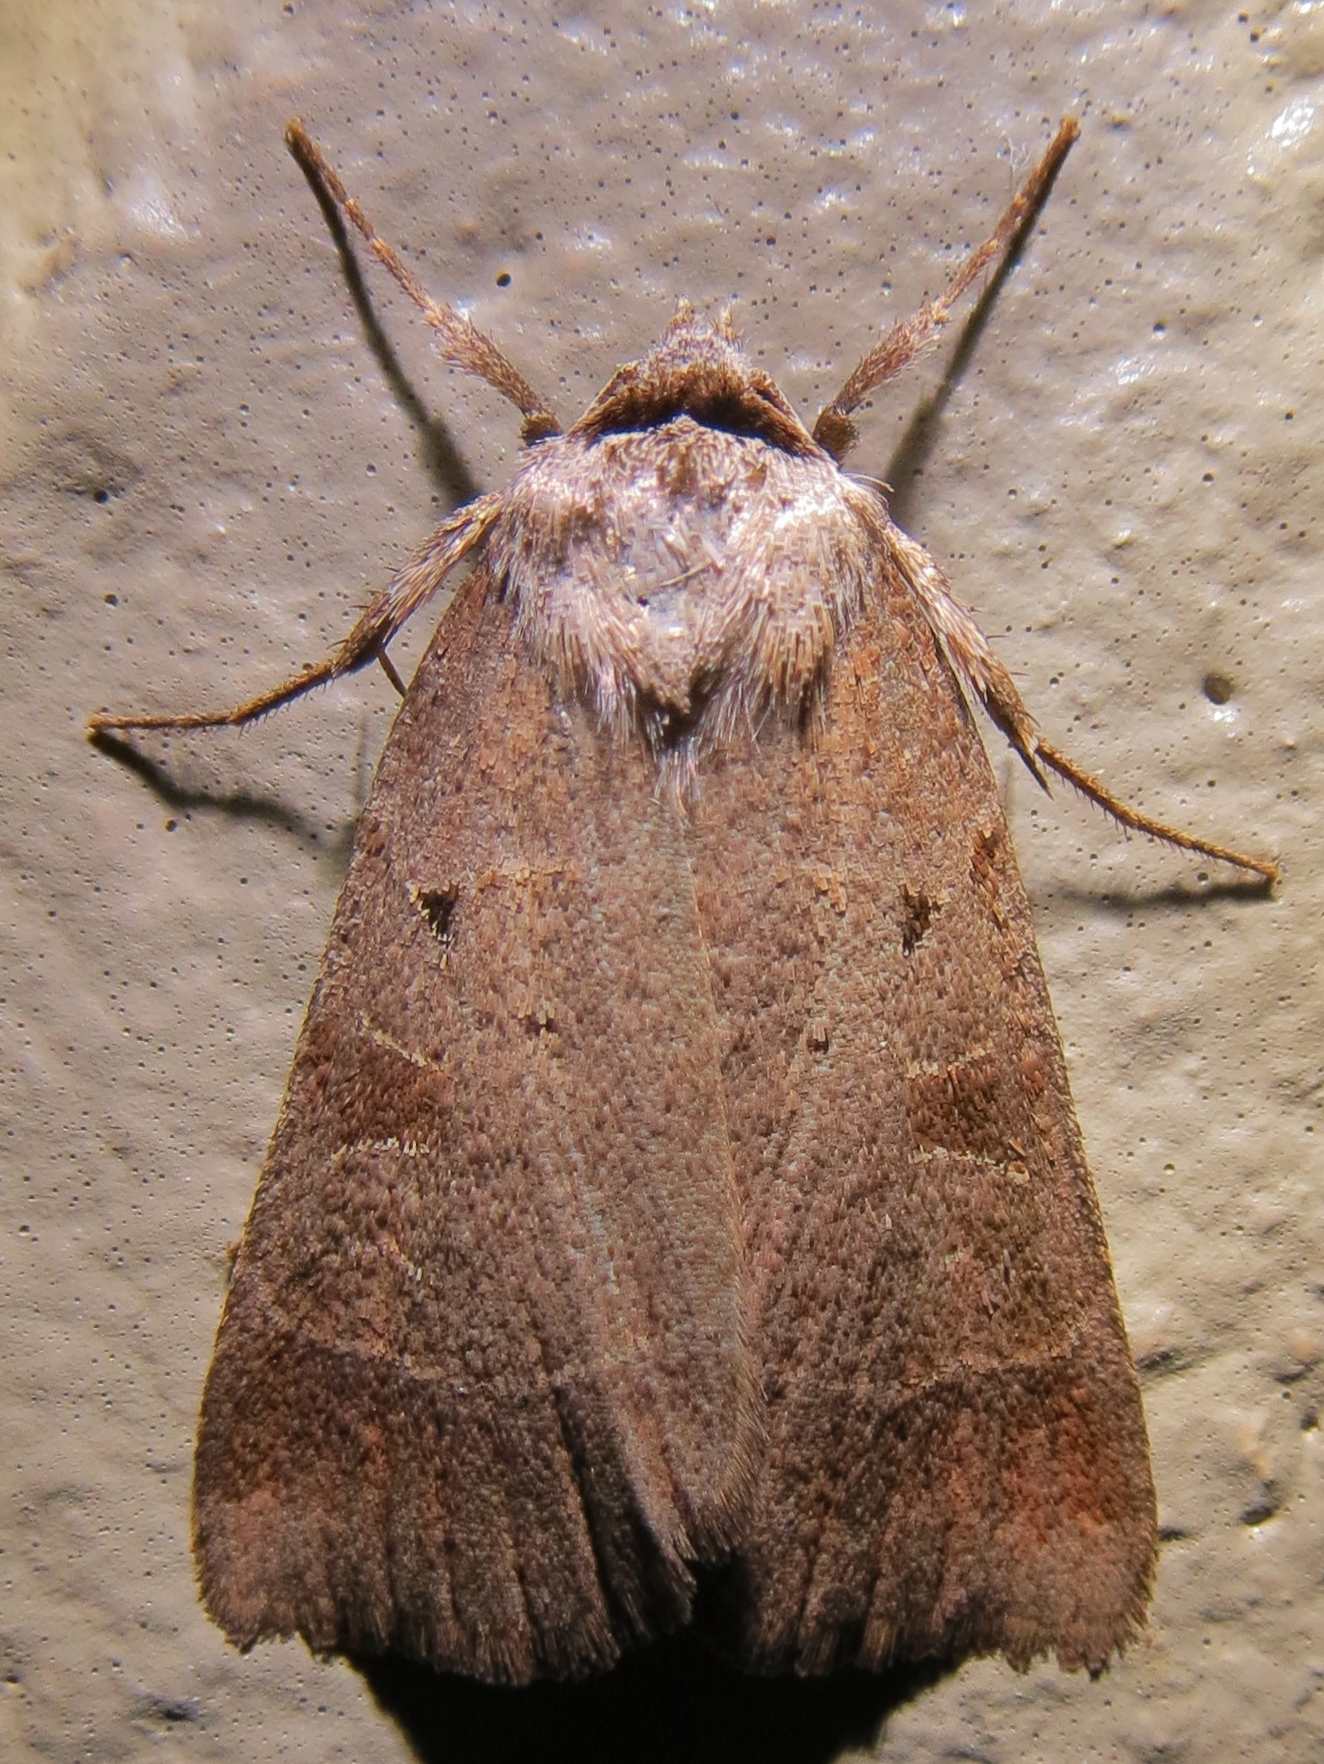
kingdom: Animalia
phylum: Arthropoda
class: Insecta
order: Lepidoptera
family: Noctuidae
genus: Agnorisma
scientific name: Agnorisma badinodis
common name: Pale-banded dart
